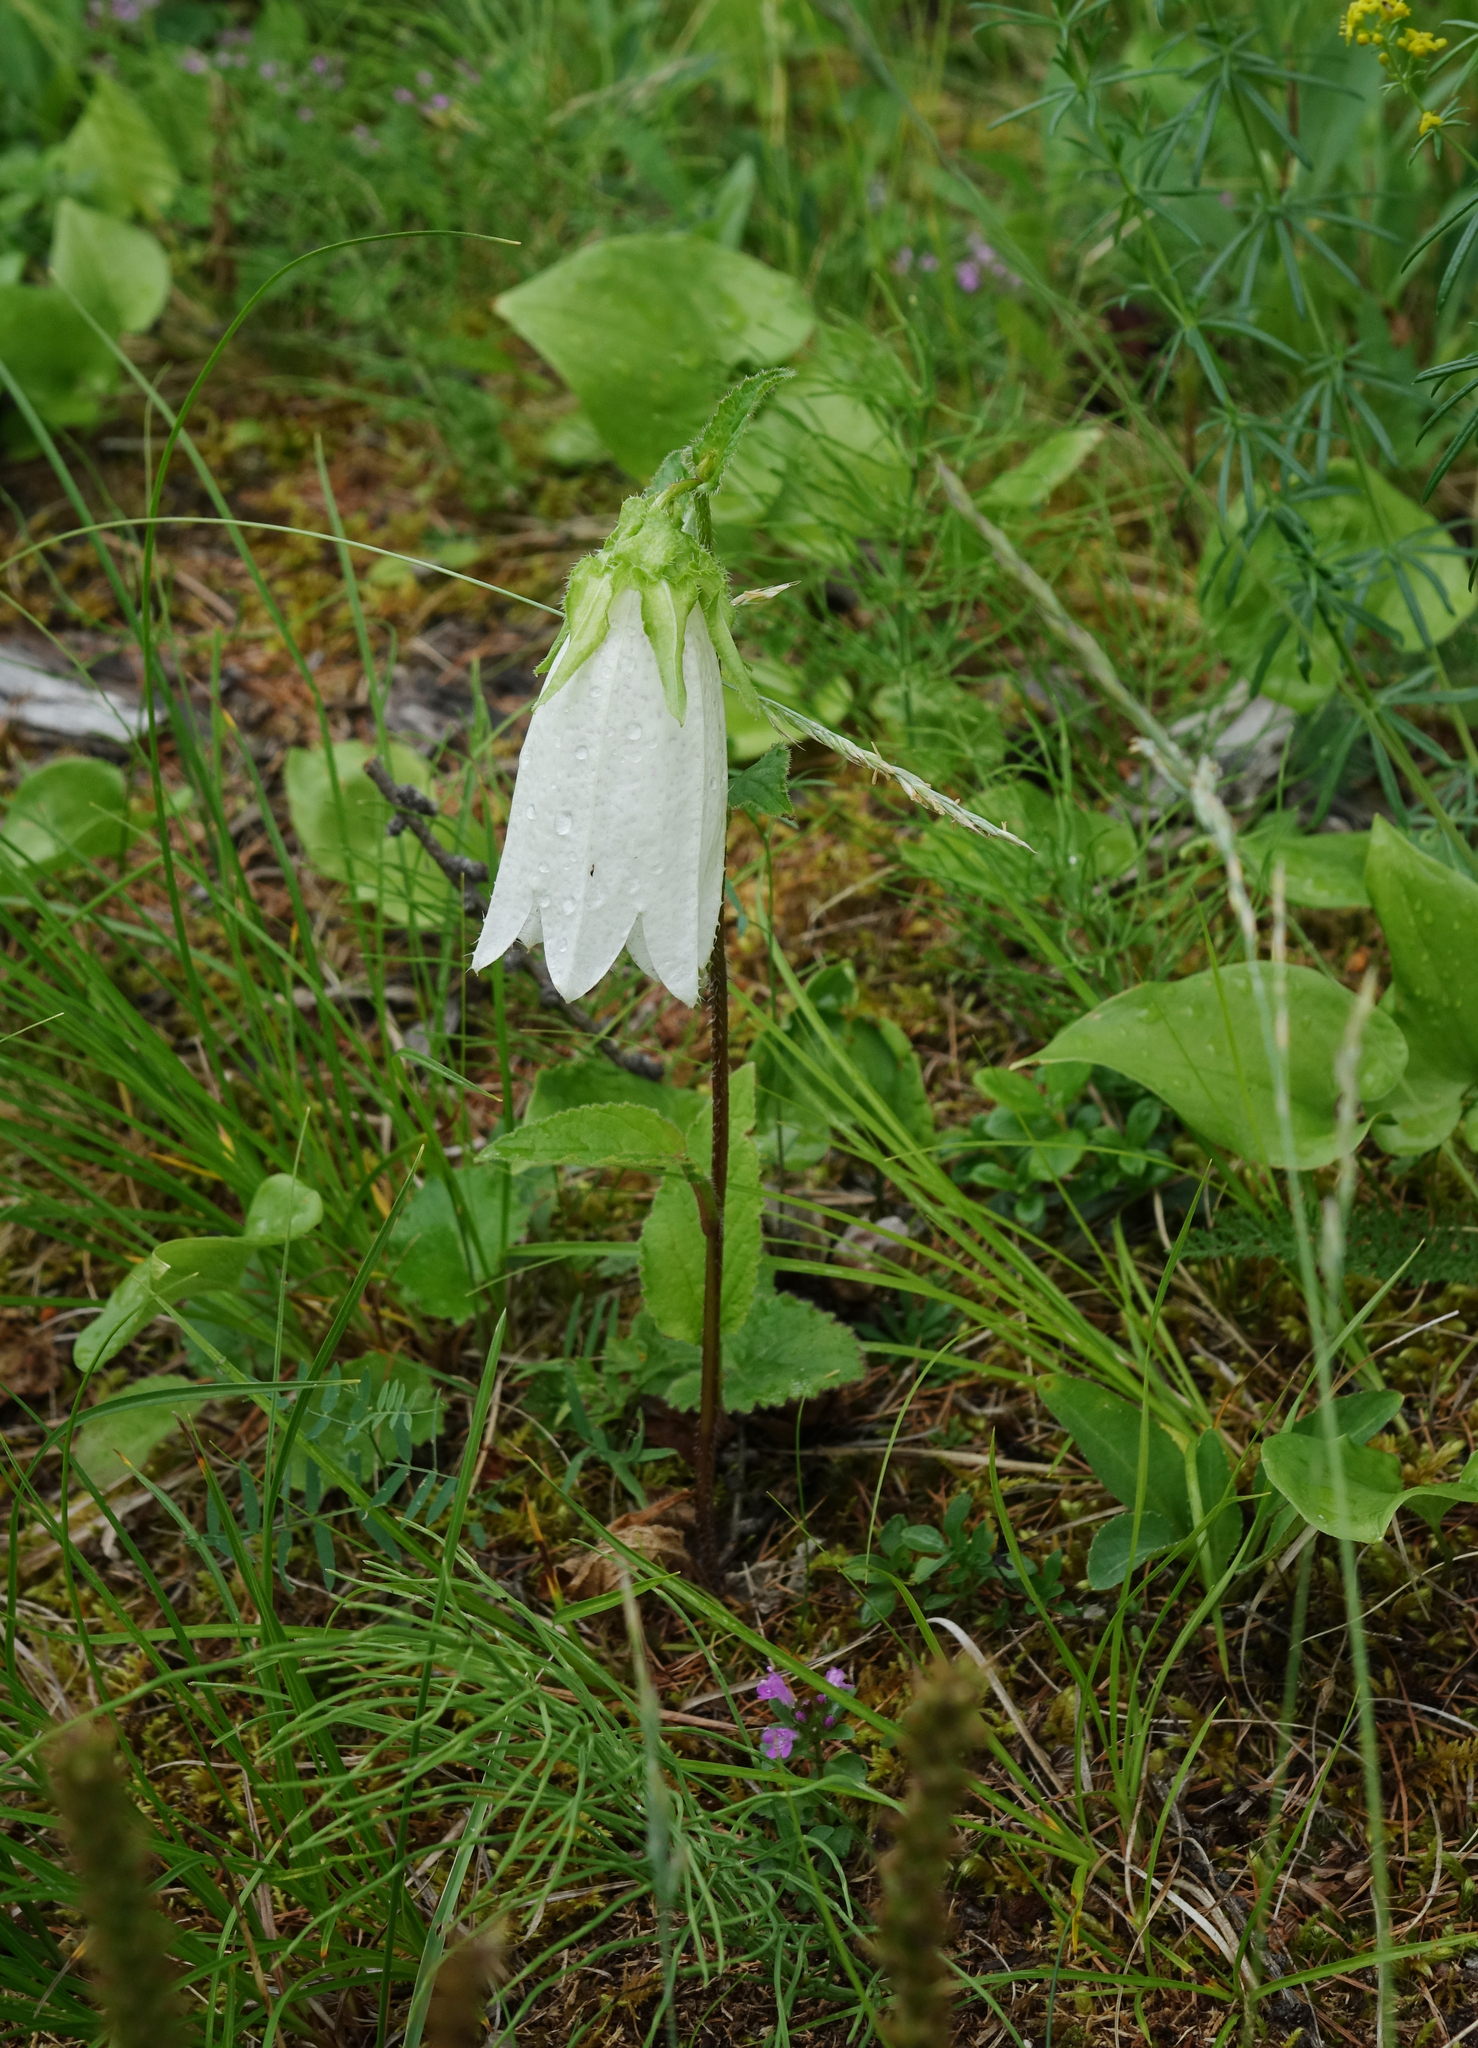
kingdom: Plantae
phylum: Tracheophyta
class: Magnoliopsida
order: Asterales
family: Campanulaceae
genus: Campanula
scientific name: Campanula punctata
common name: Spotted bellflower
